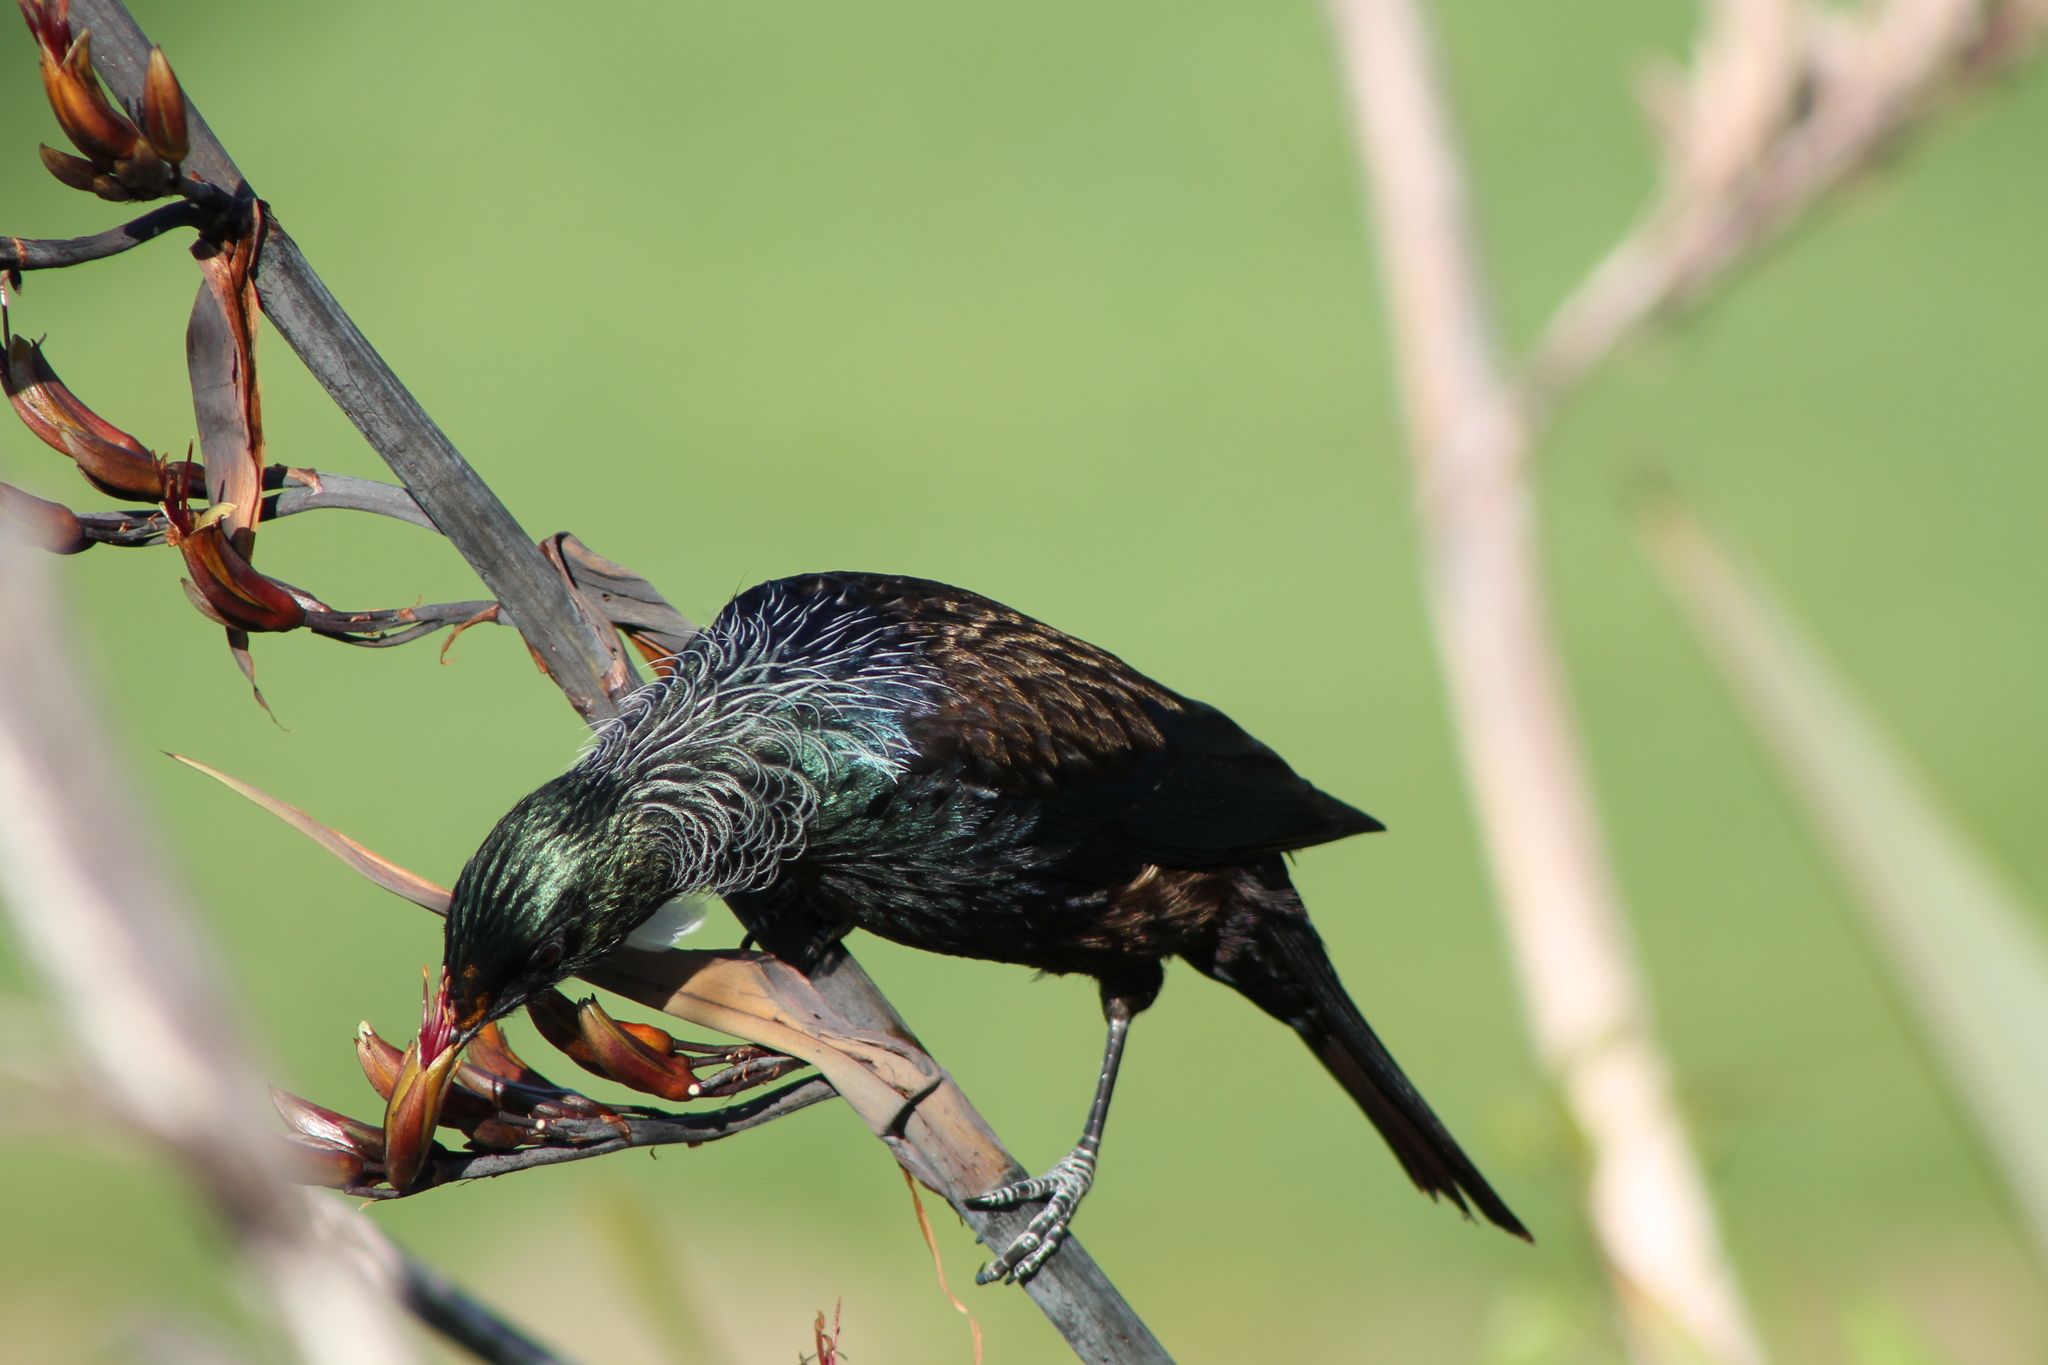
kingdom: Animalia
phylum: Chordata
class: Aves
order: Passeriformes
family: Meliphagidae
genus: Prosthemadera
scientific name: Prosthemadera novaeseelandiae
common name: Tui
